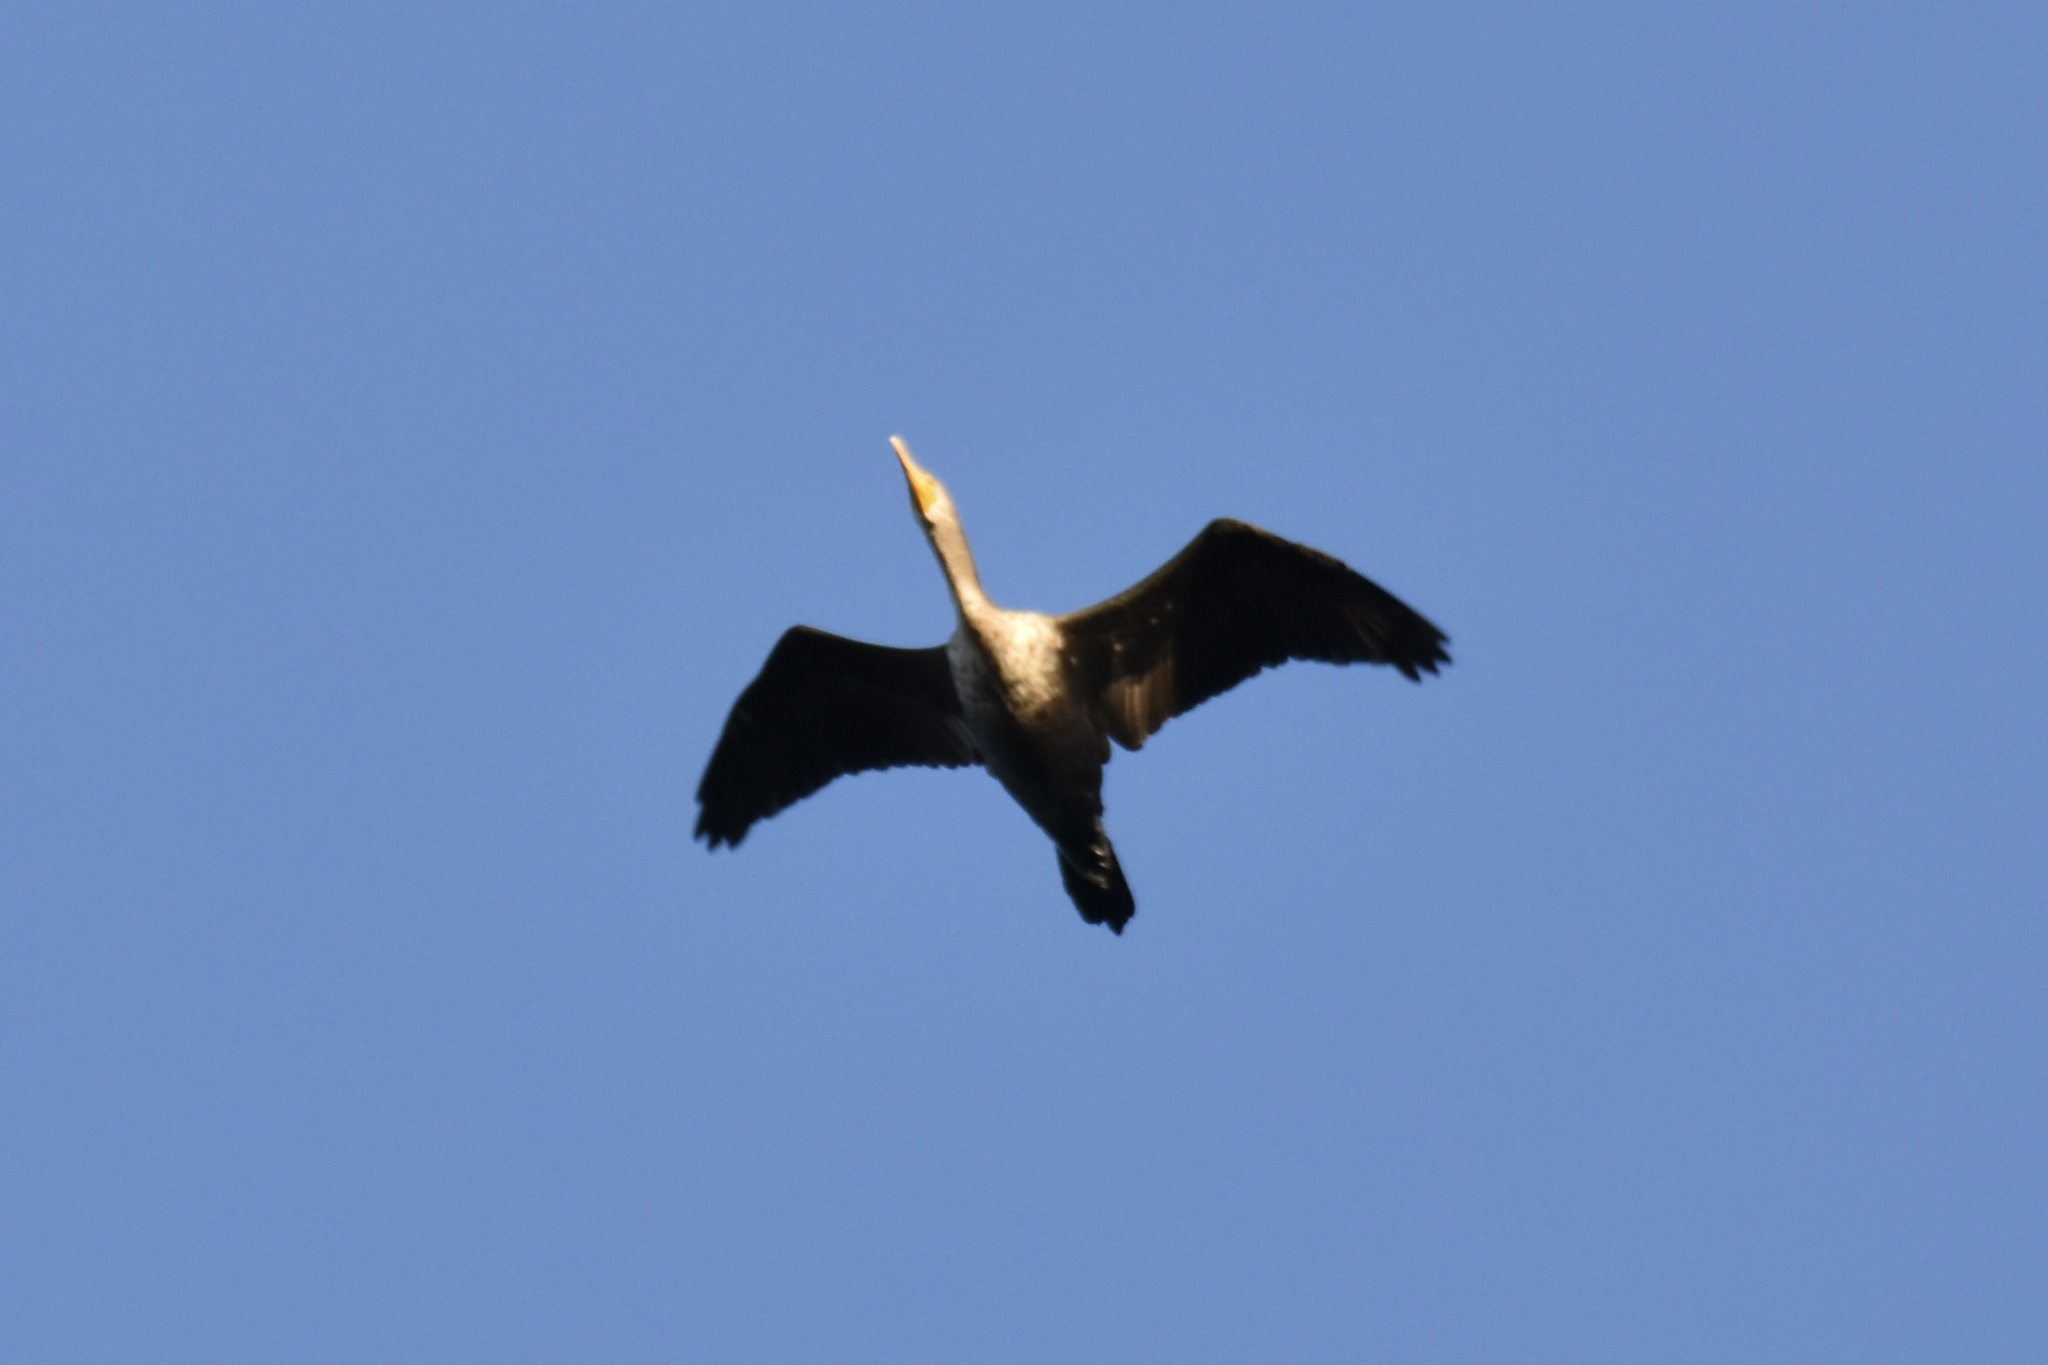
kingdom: Animalia
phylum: Chordata
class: Aves
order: Suliformes
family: Phalacrocoracidae
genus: Phalacrocorax
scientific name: Phalacrocorax auritus
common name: Double-crested cormorant
